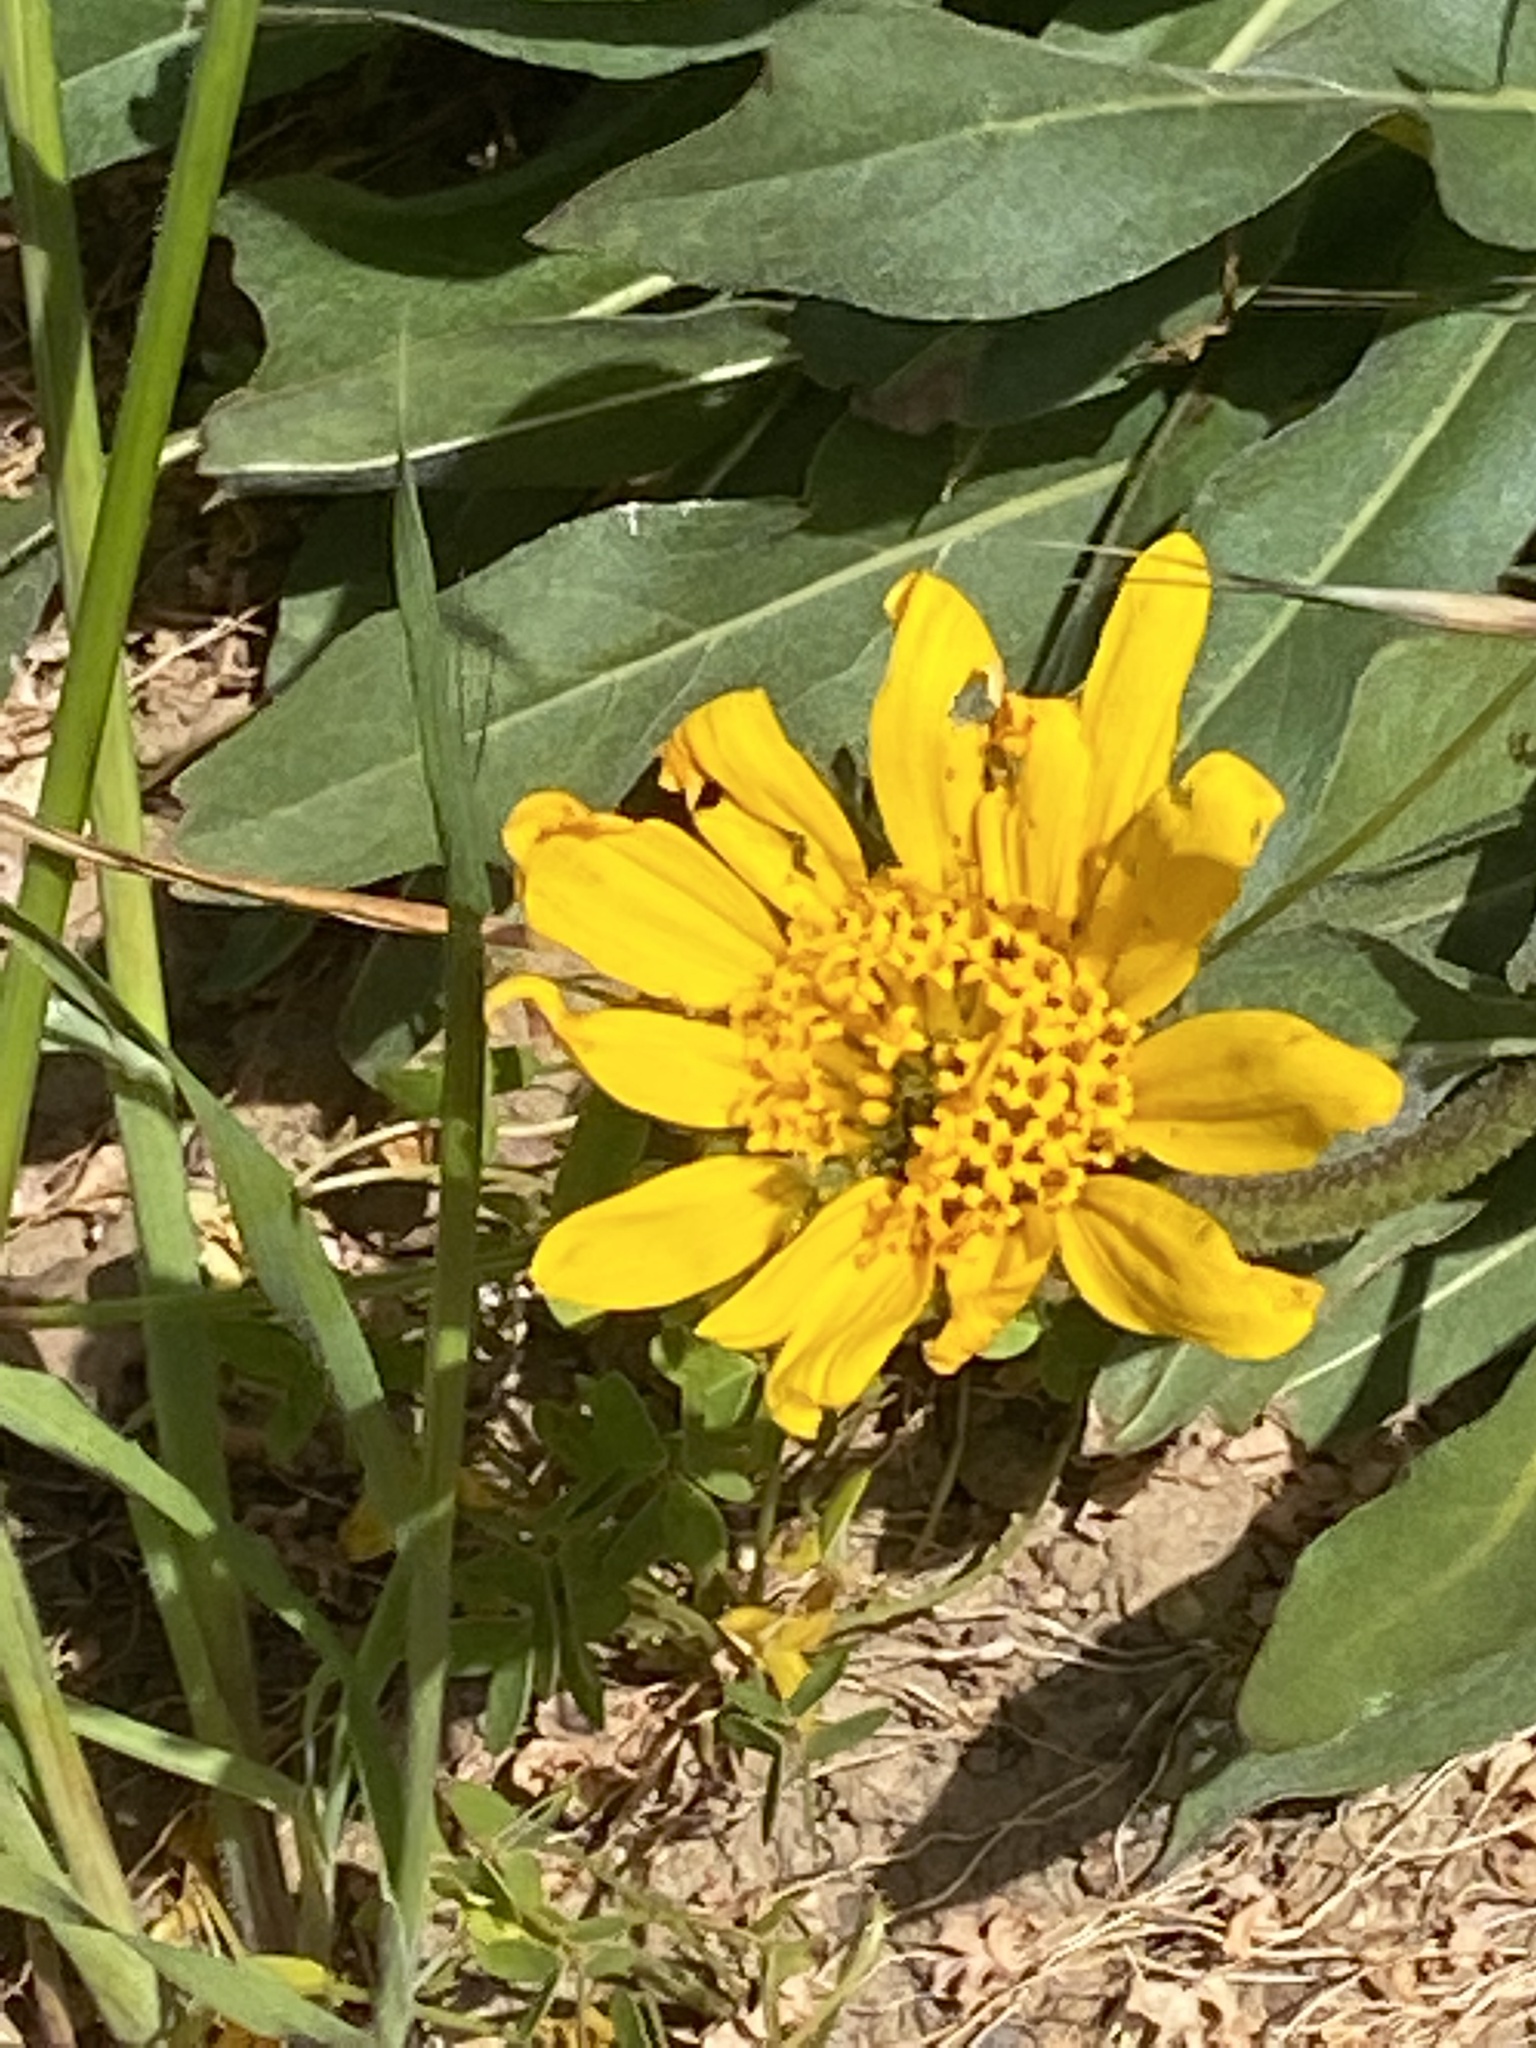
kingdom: Plantae
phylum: Tracheophyta
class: Magnoliopsida
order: Asterales
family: Asteraceae
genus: Wyethia
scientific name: Wyethia angustifolia
